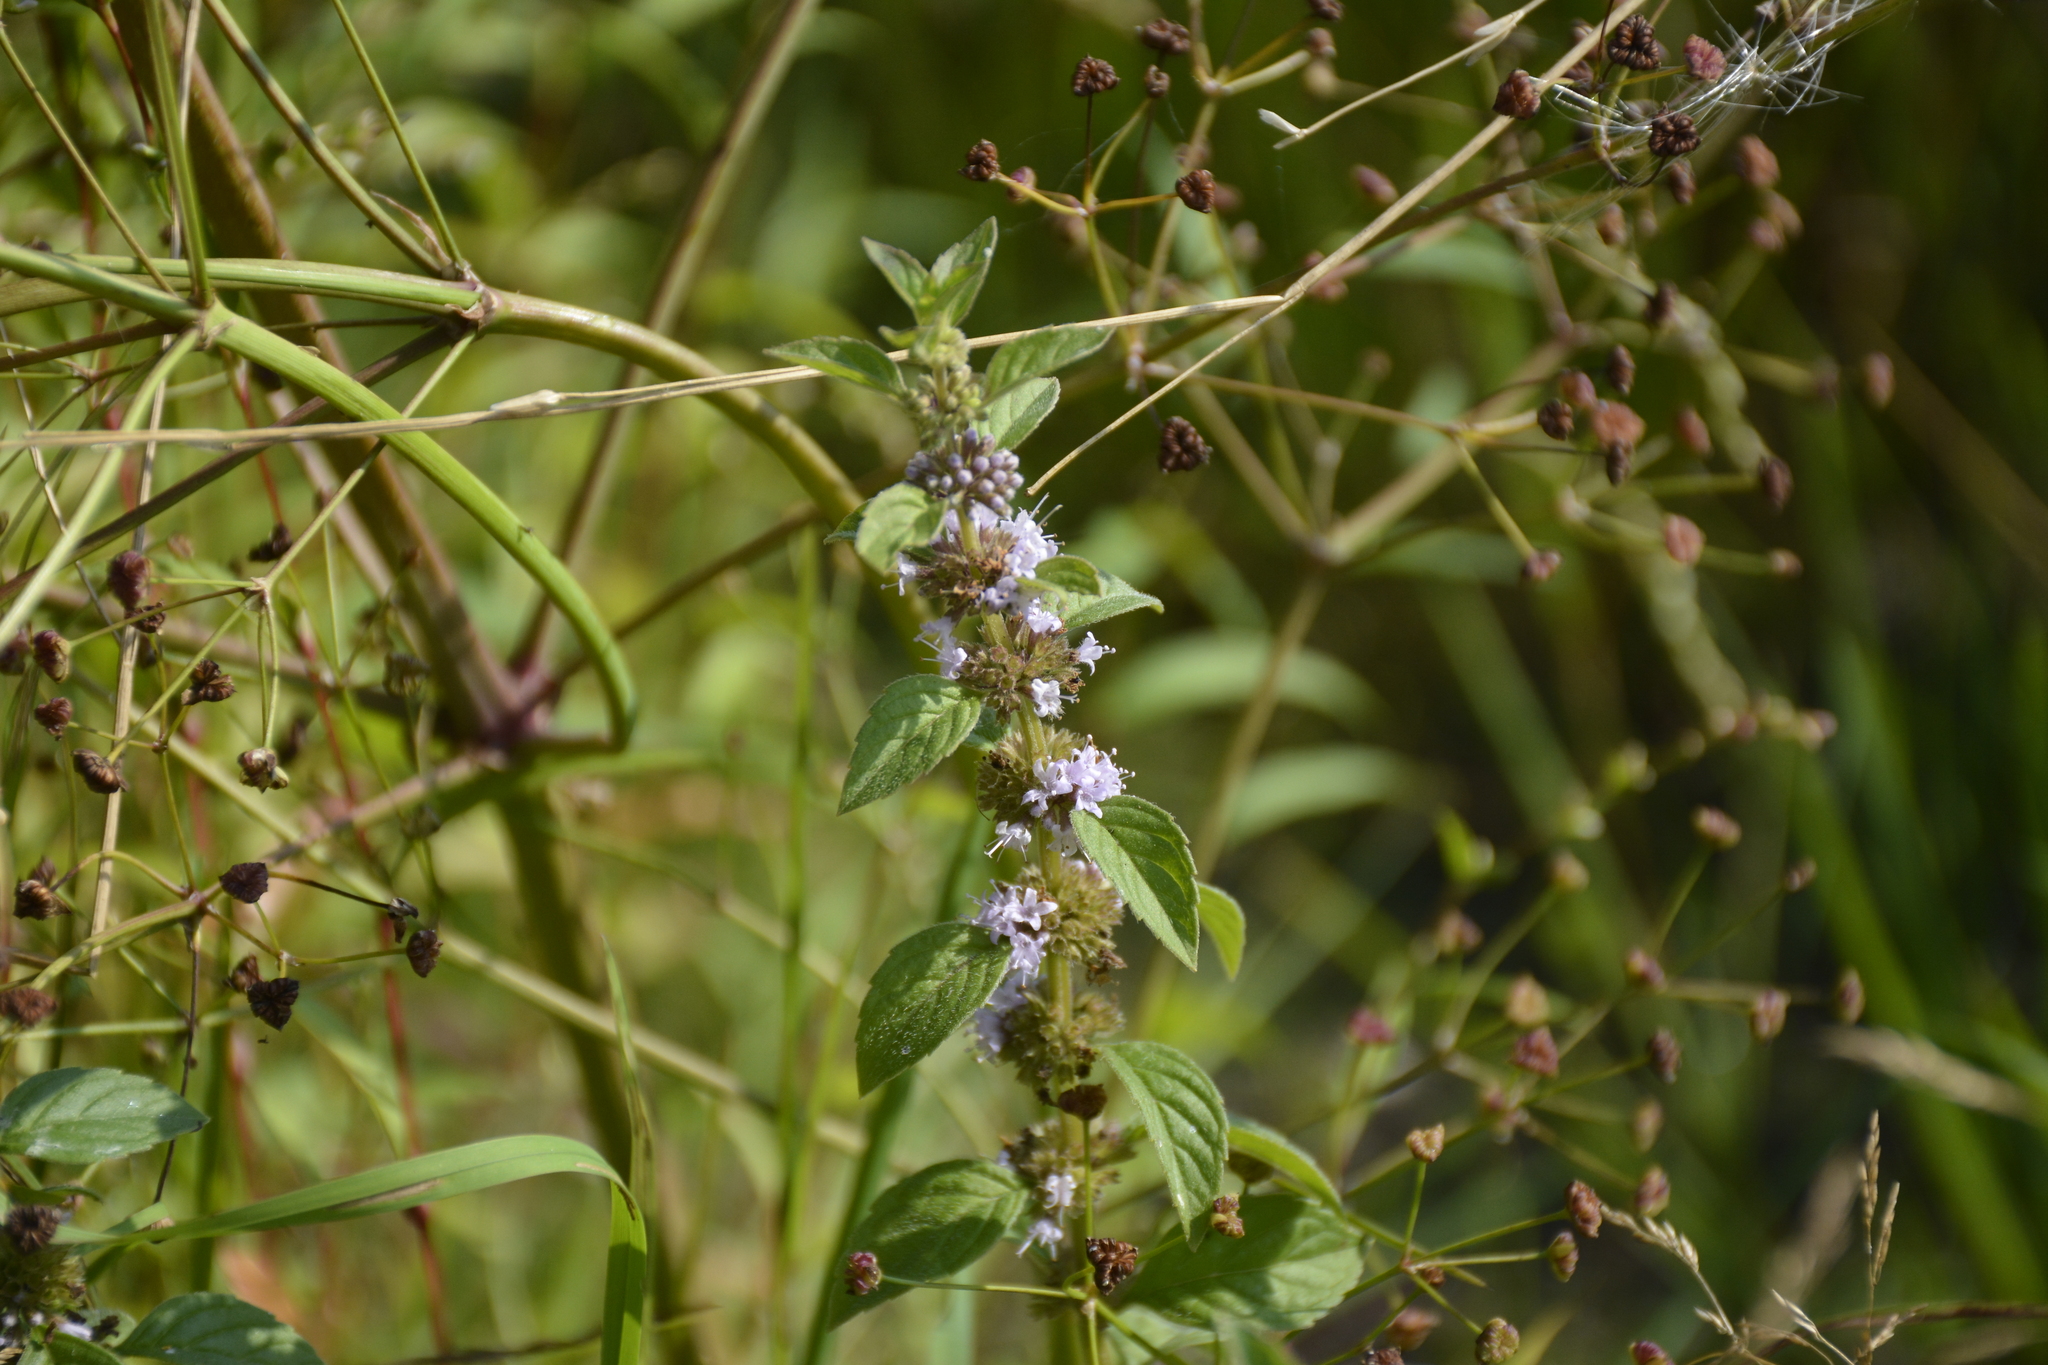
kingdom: Plantae
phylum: Tracheophyta
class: Magnoliopsida
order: Lamiales
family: Lamiaceae
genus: Mentha
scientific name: Mentha arvensis
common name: Corn mint
